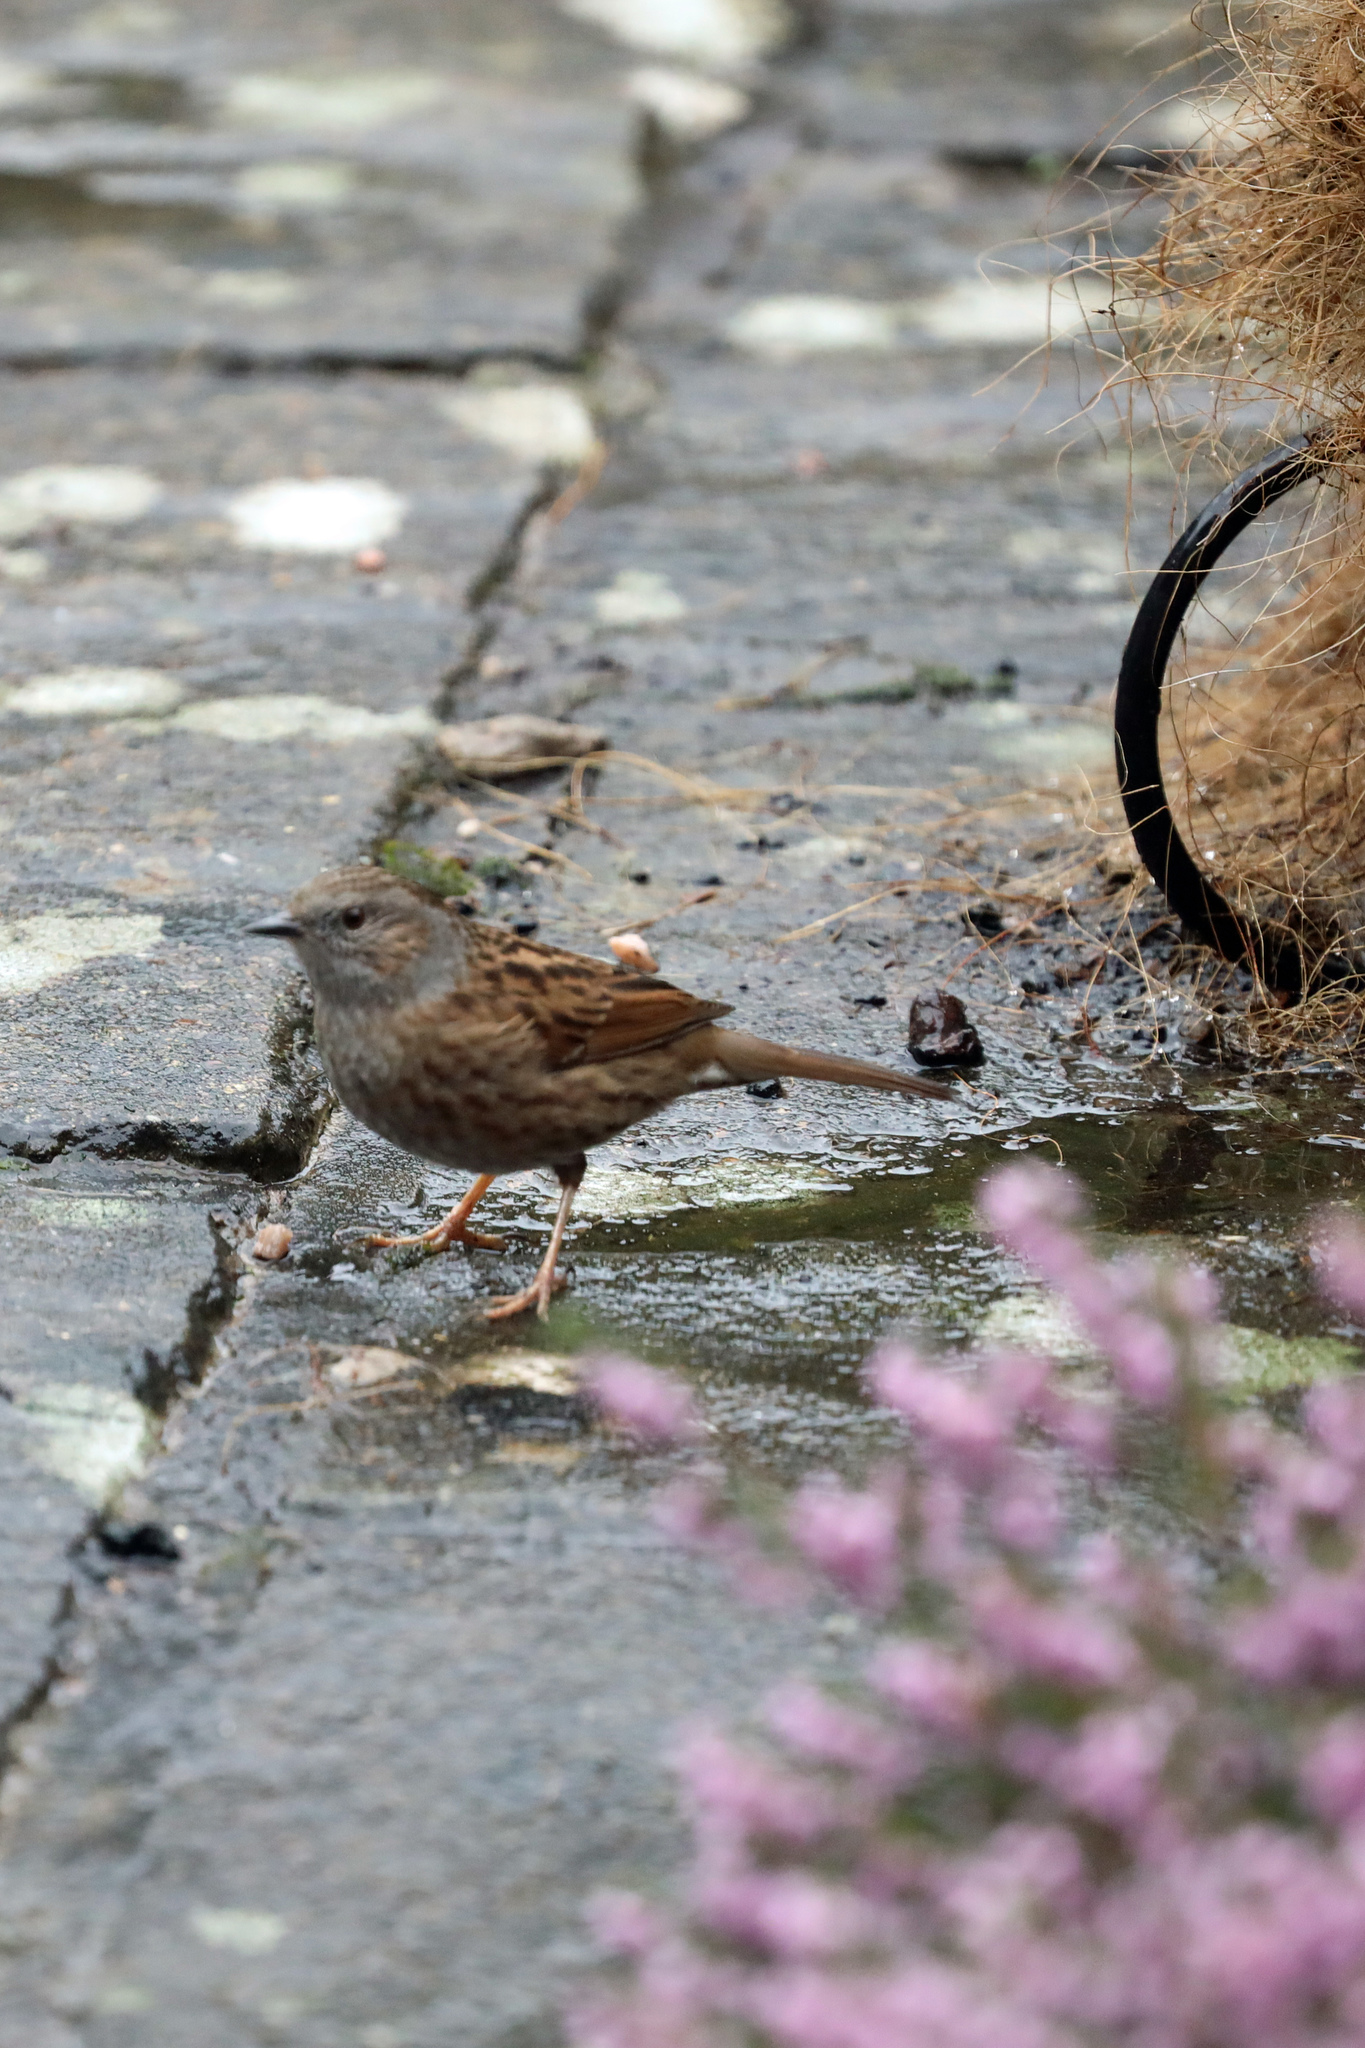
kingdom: Animalia
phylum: Chordata
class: Aves
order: Passeriformes
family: Prunellidae
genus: Prunella
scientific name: Prunella modularis
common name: Dunnock
